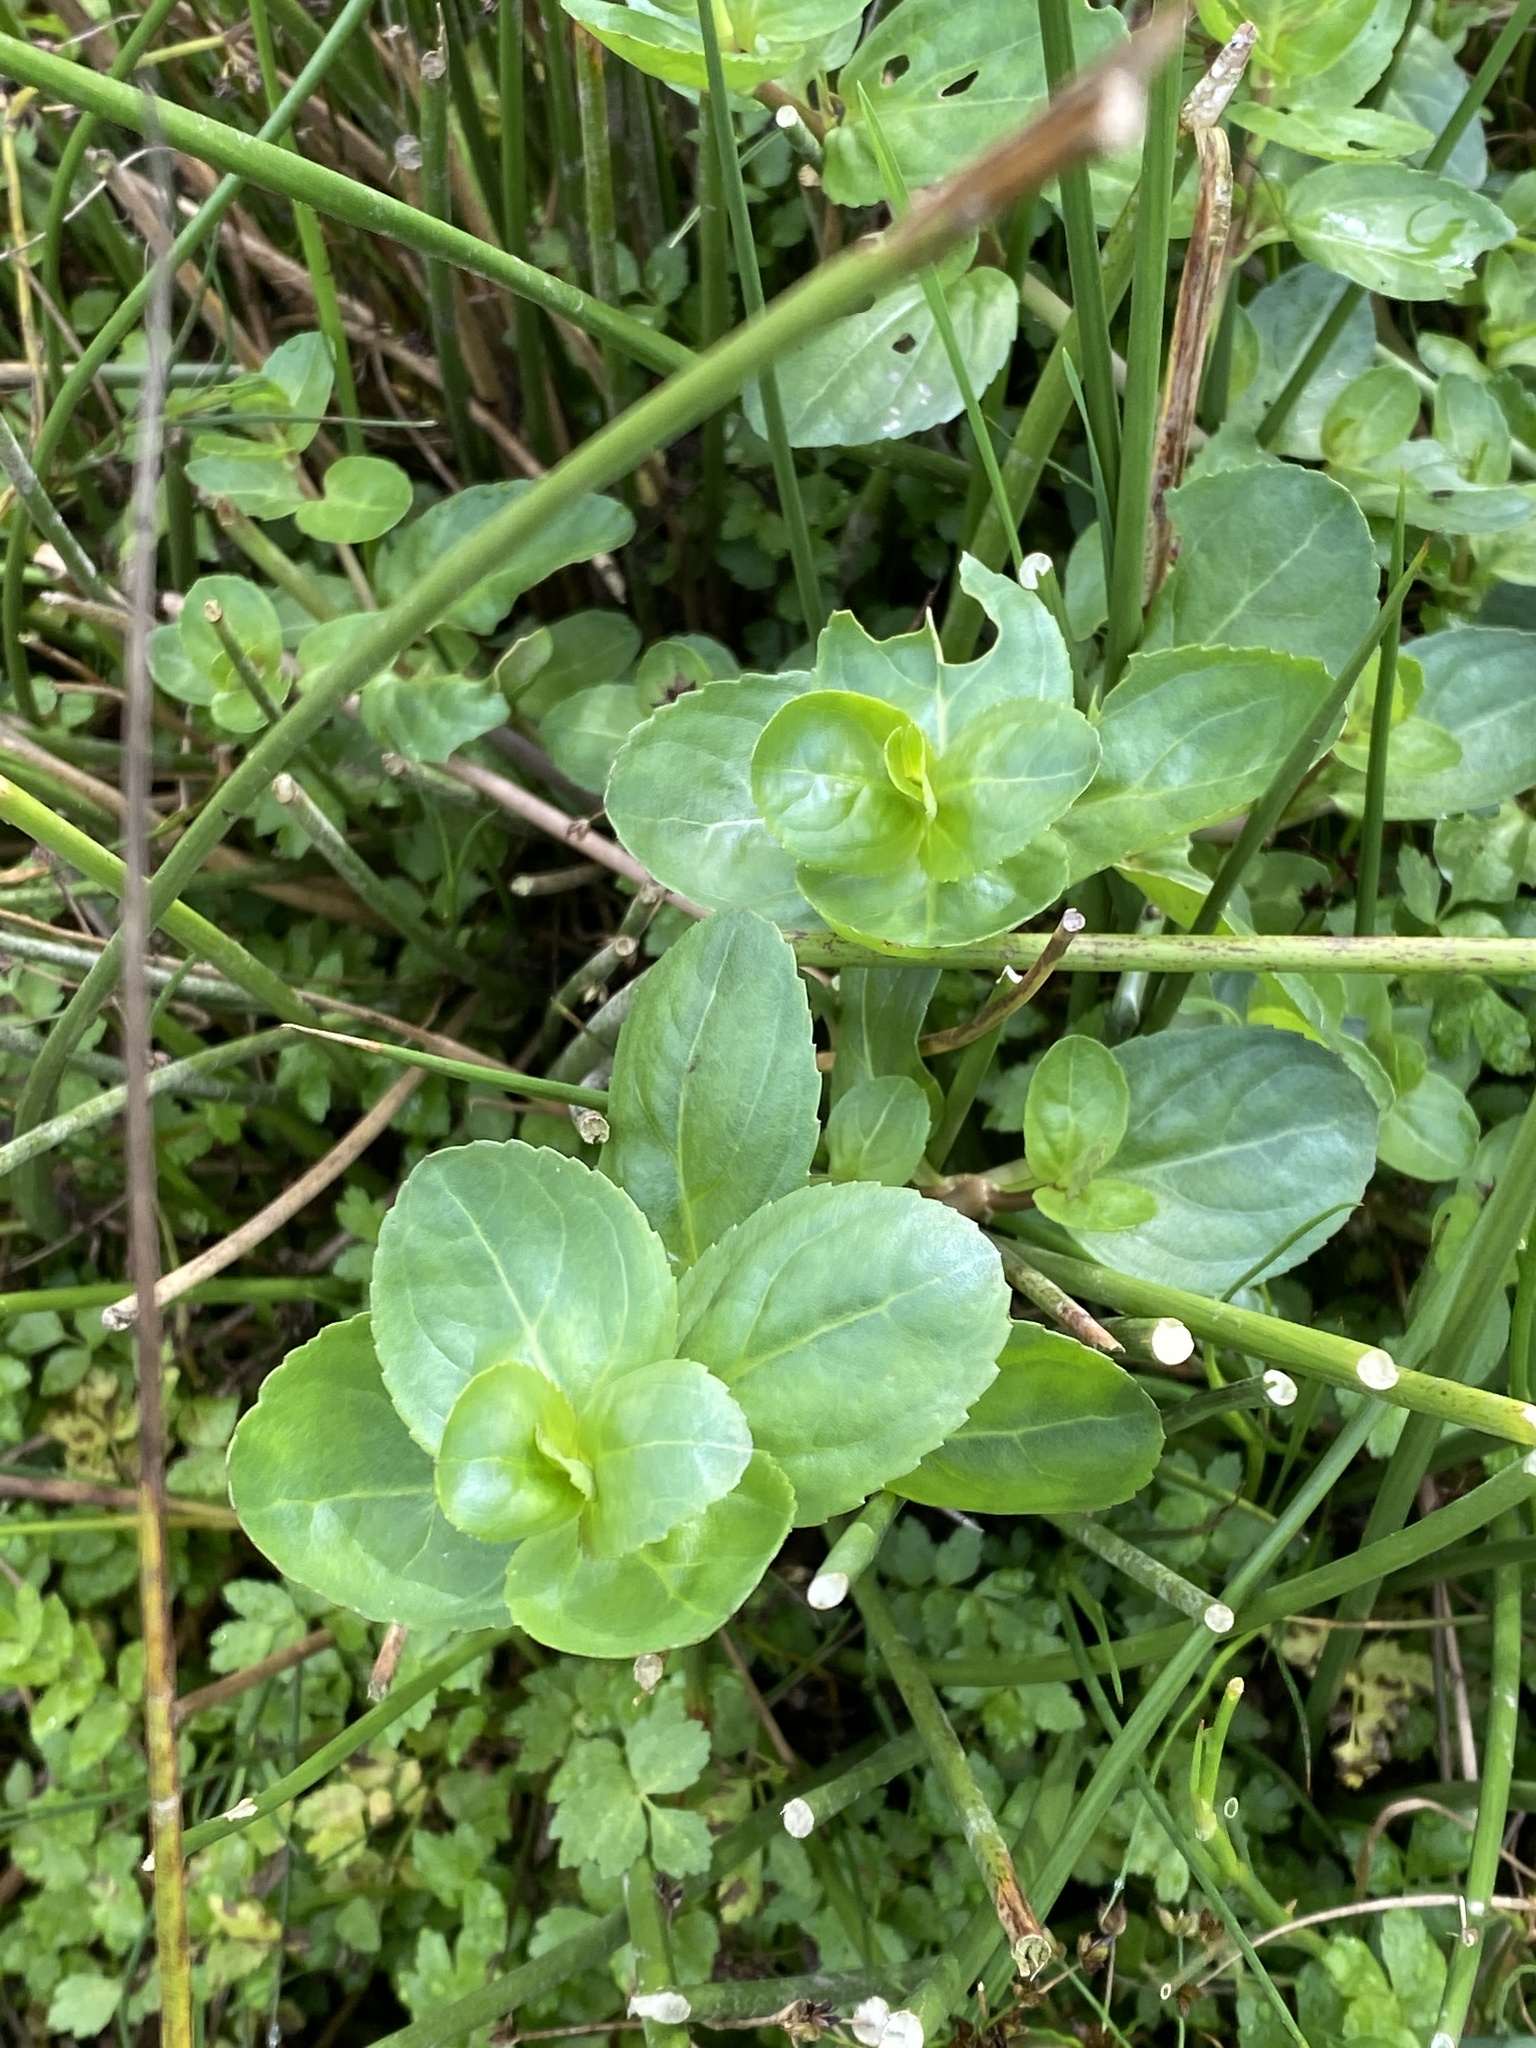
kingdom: Plantae
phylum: Tracheophyta
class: Magnoliopsida
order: Lamiales
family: Plantaginaceae
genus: Veronica
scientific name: Veronica beccabunga
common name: Brooklime
